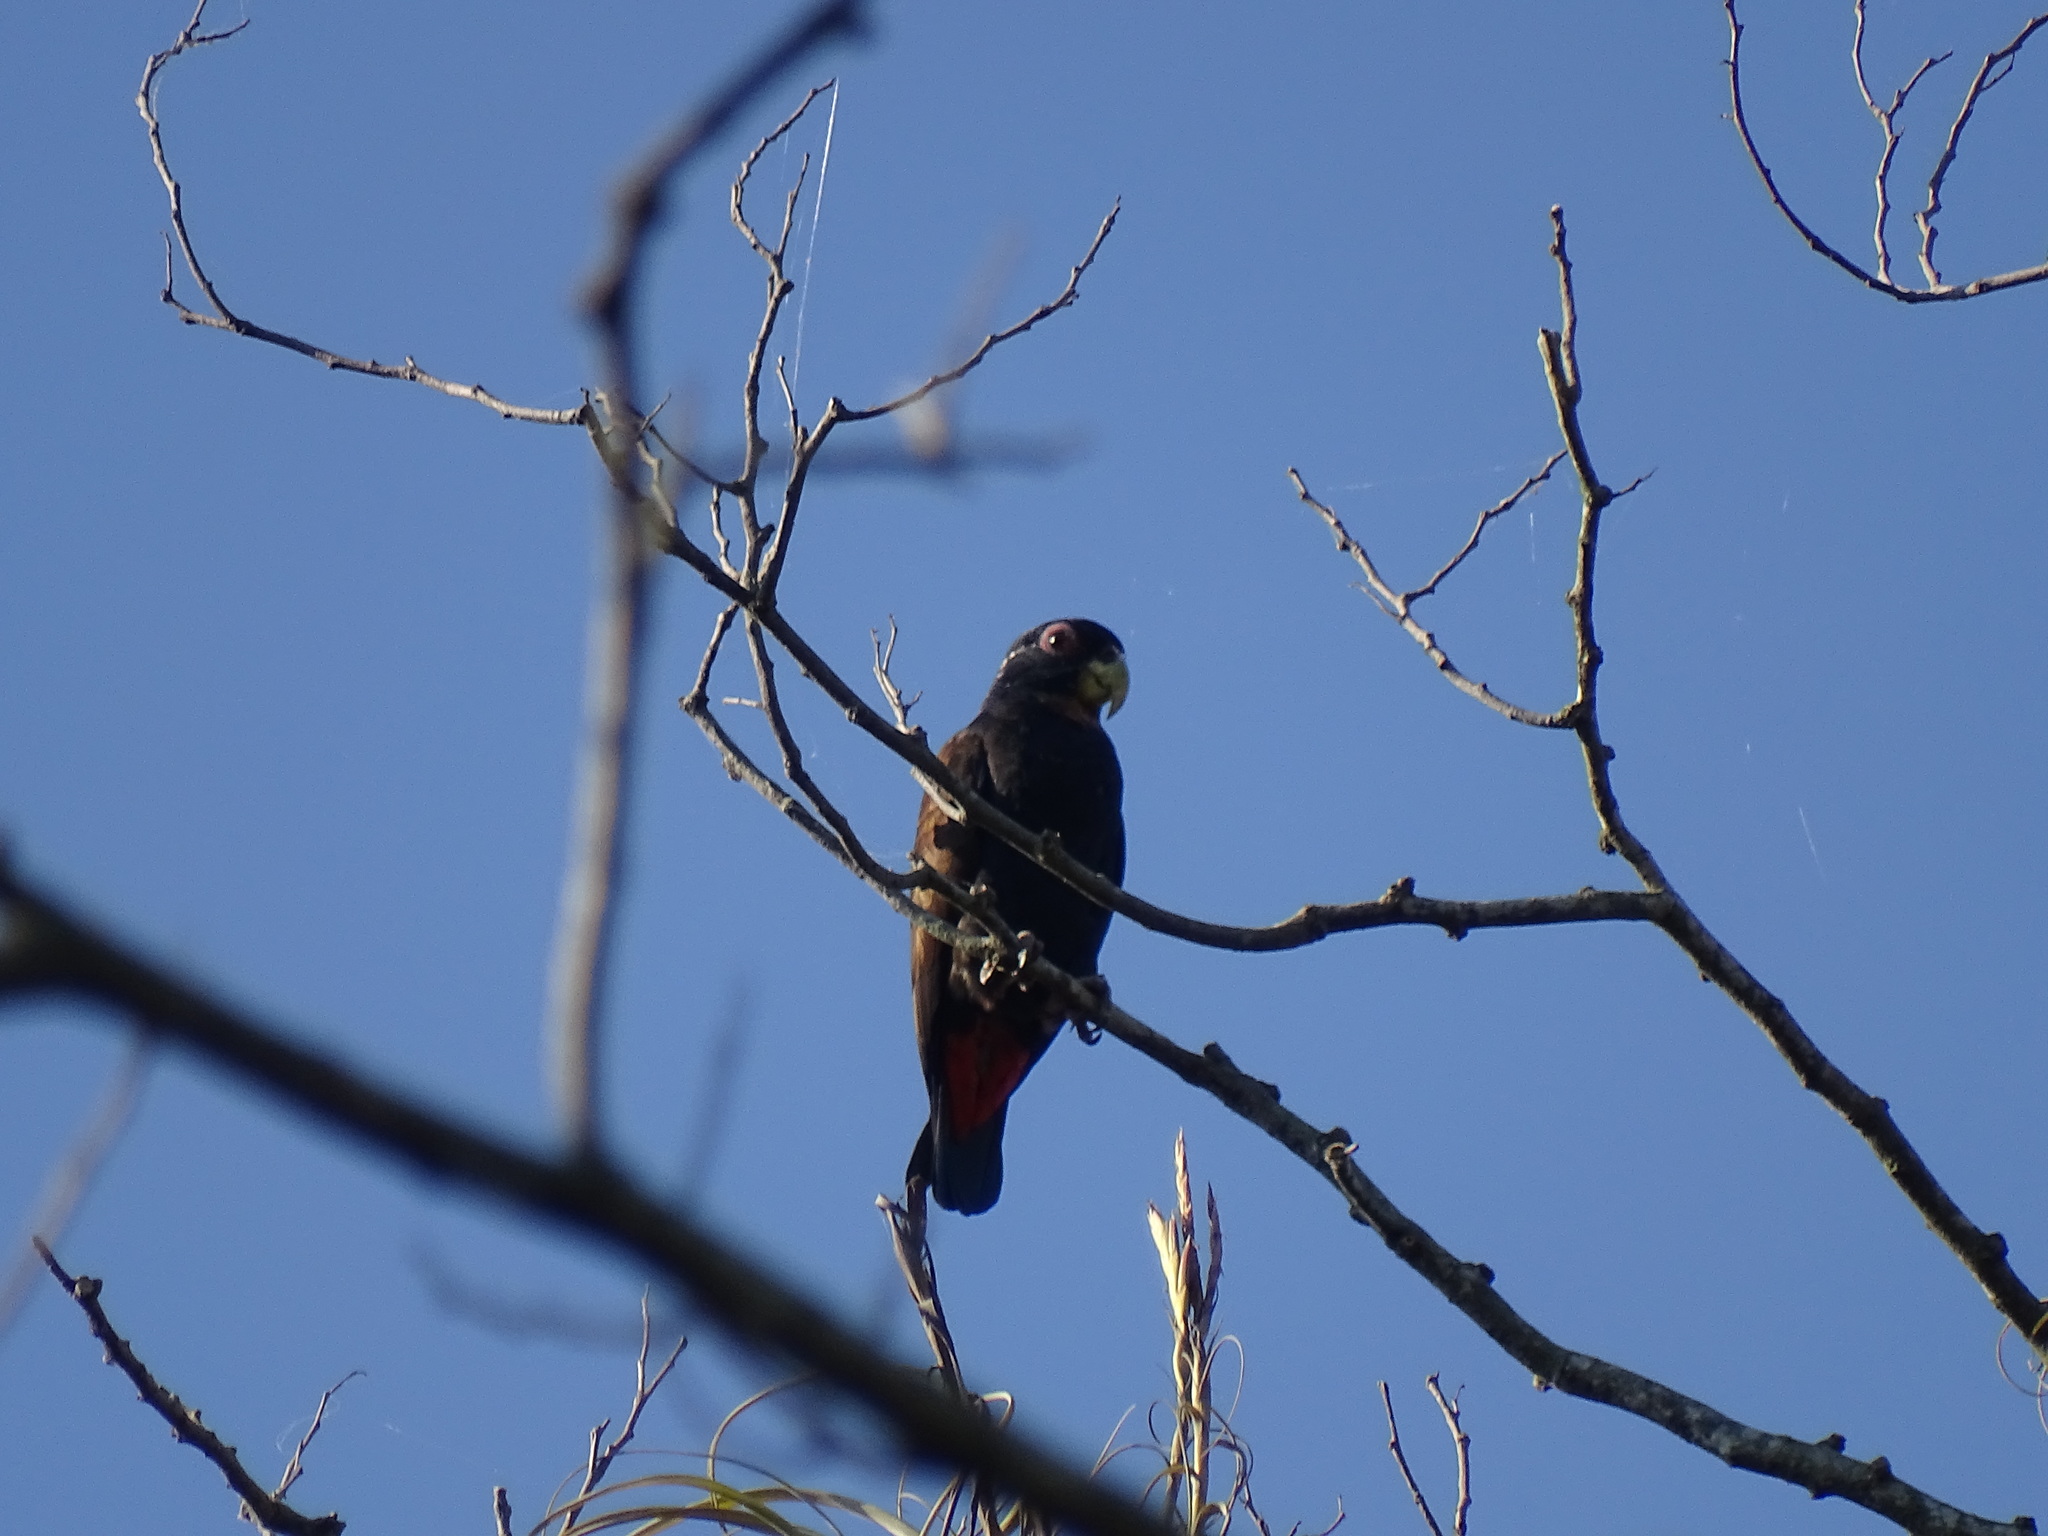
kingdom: Animalia
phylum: Chordata
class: Aves
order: Psittaciformes
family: Psittacidae
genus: Pionus
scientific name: Pionus chalcopterus
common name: Bronze-winged parrot
